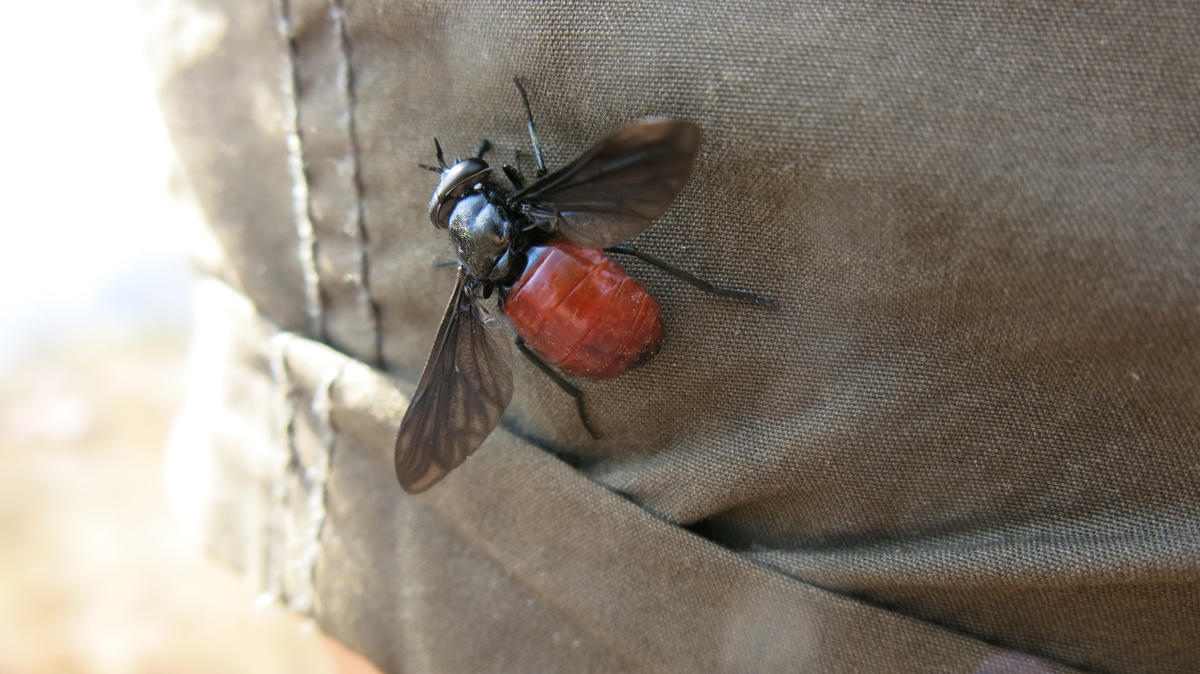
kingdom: Animalia
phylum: Arthropoda
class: Insecta
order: Diptera
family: Tabanidae
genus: Philoliche
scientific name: Philoliche lugens
